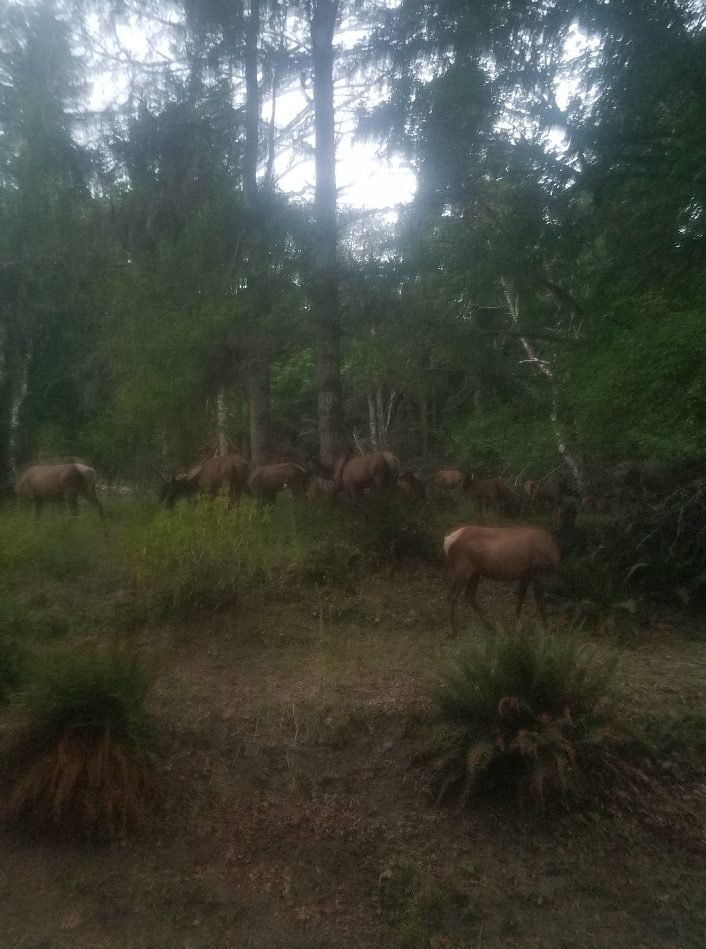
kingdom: Animalia
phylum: Chordata
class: Mammalia
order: Artiodactyla
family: Cervidae
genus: Cervus
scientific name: Cervus elaphus
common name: Red deer
